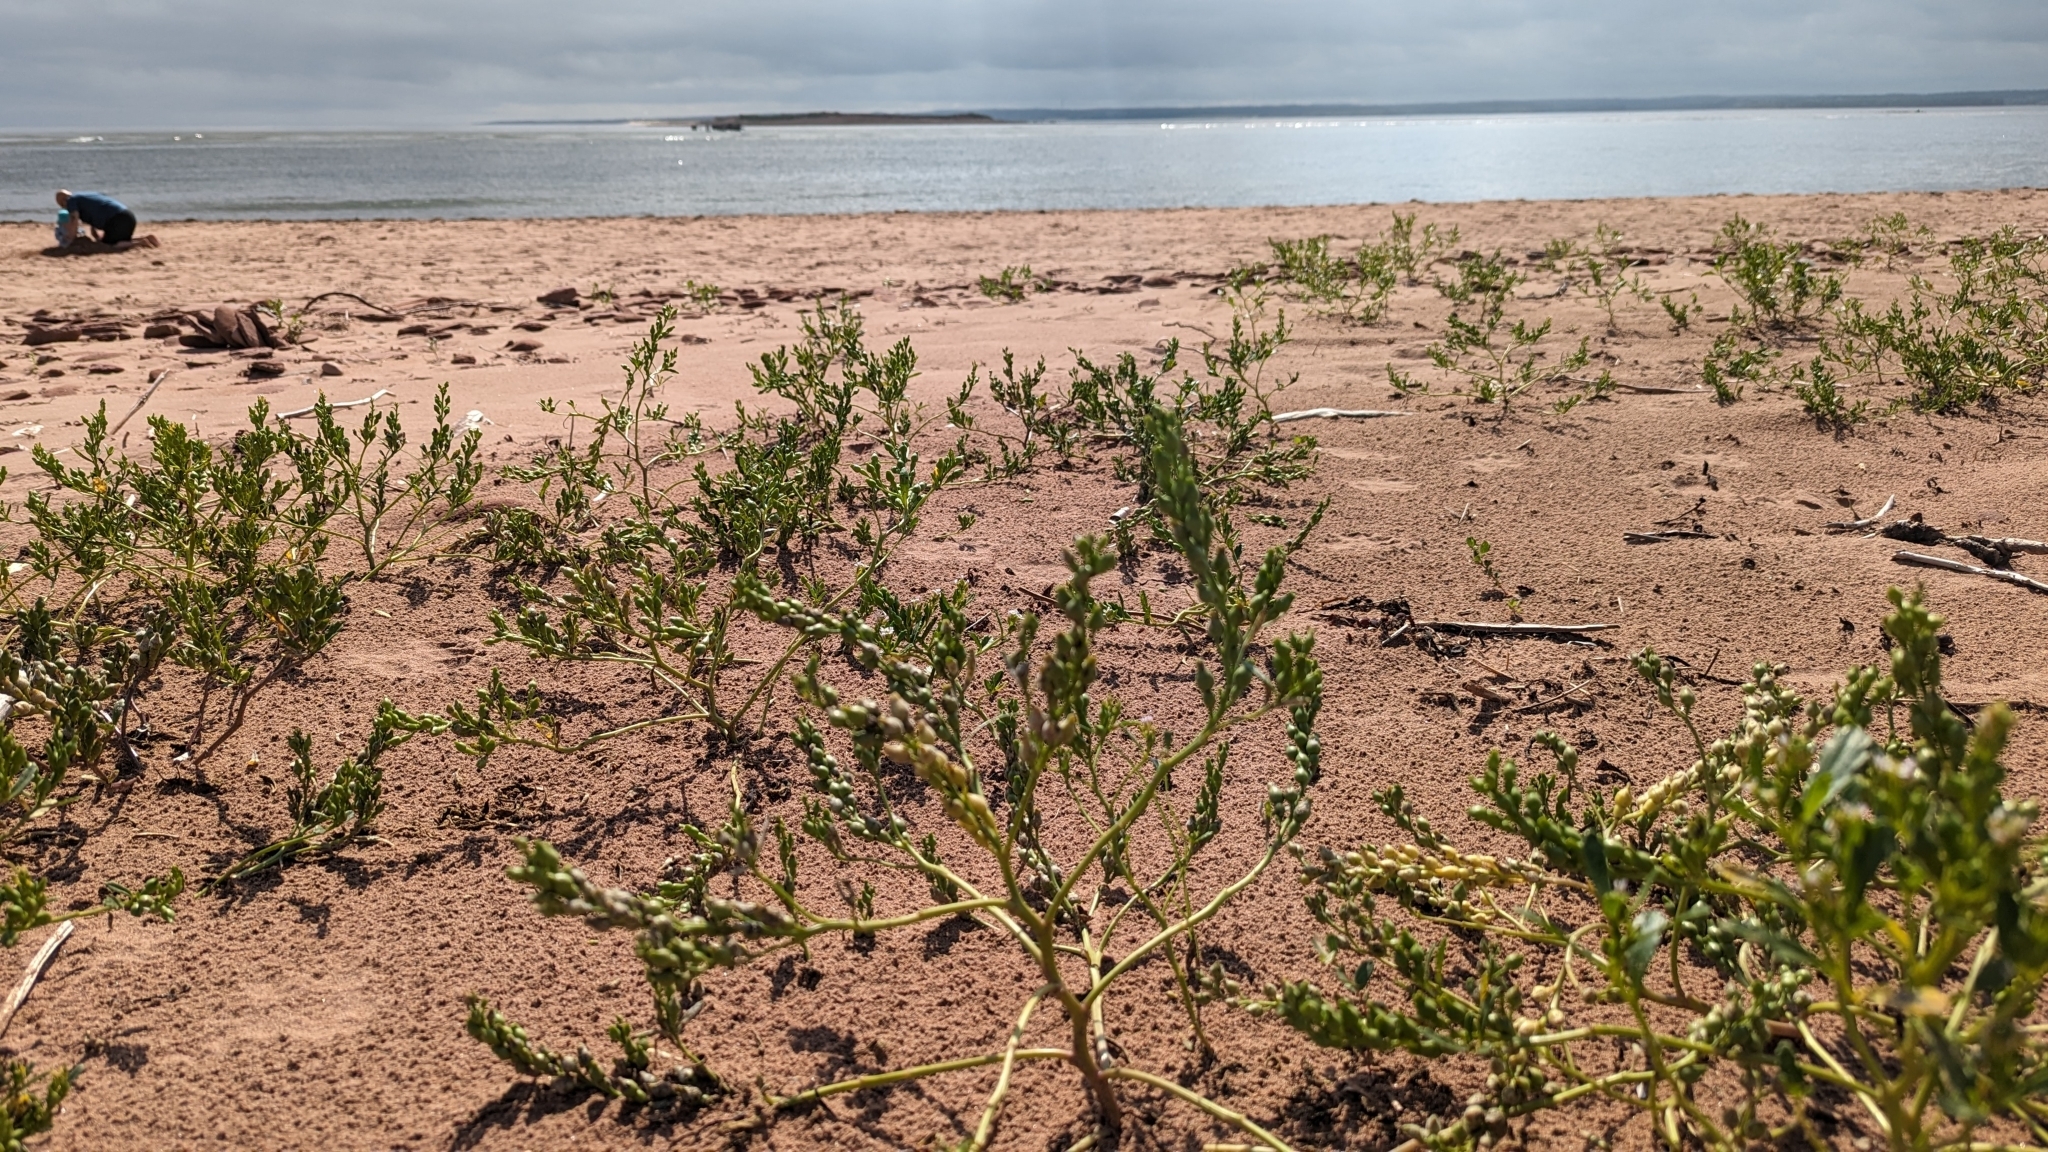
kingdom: Plantae
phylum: Tracheophyta
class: Magnoliopsida
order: Brassicales
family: Brassicaceae
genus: Cakile
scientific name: Cakile edentula
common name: American sea rocket
